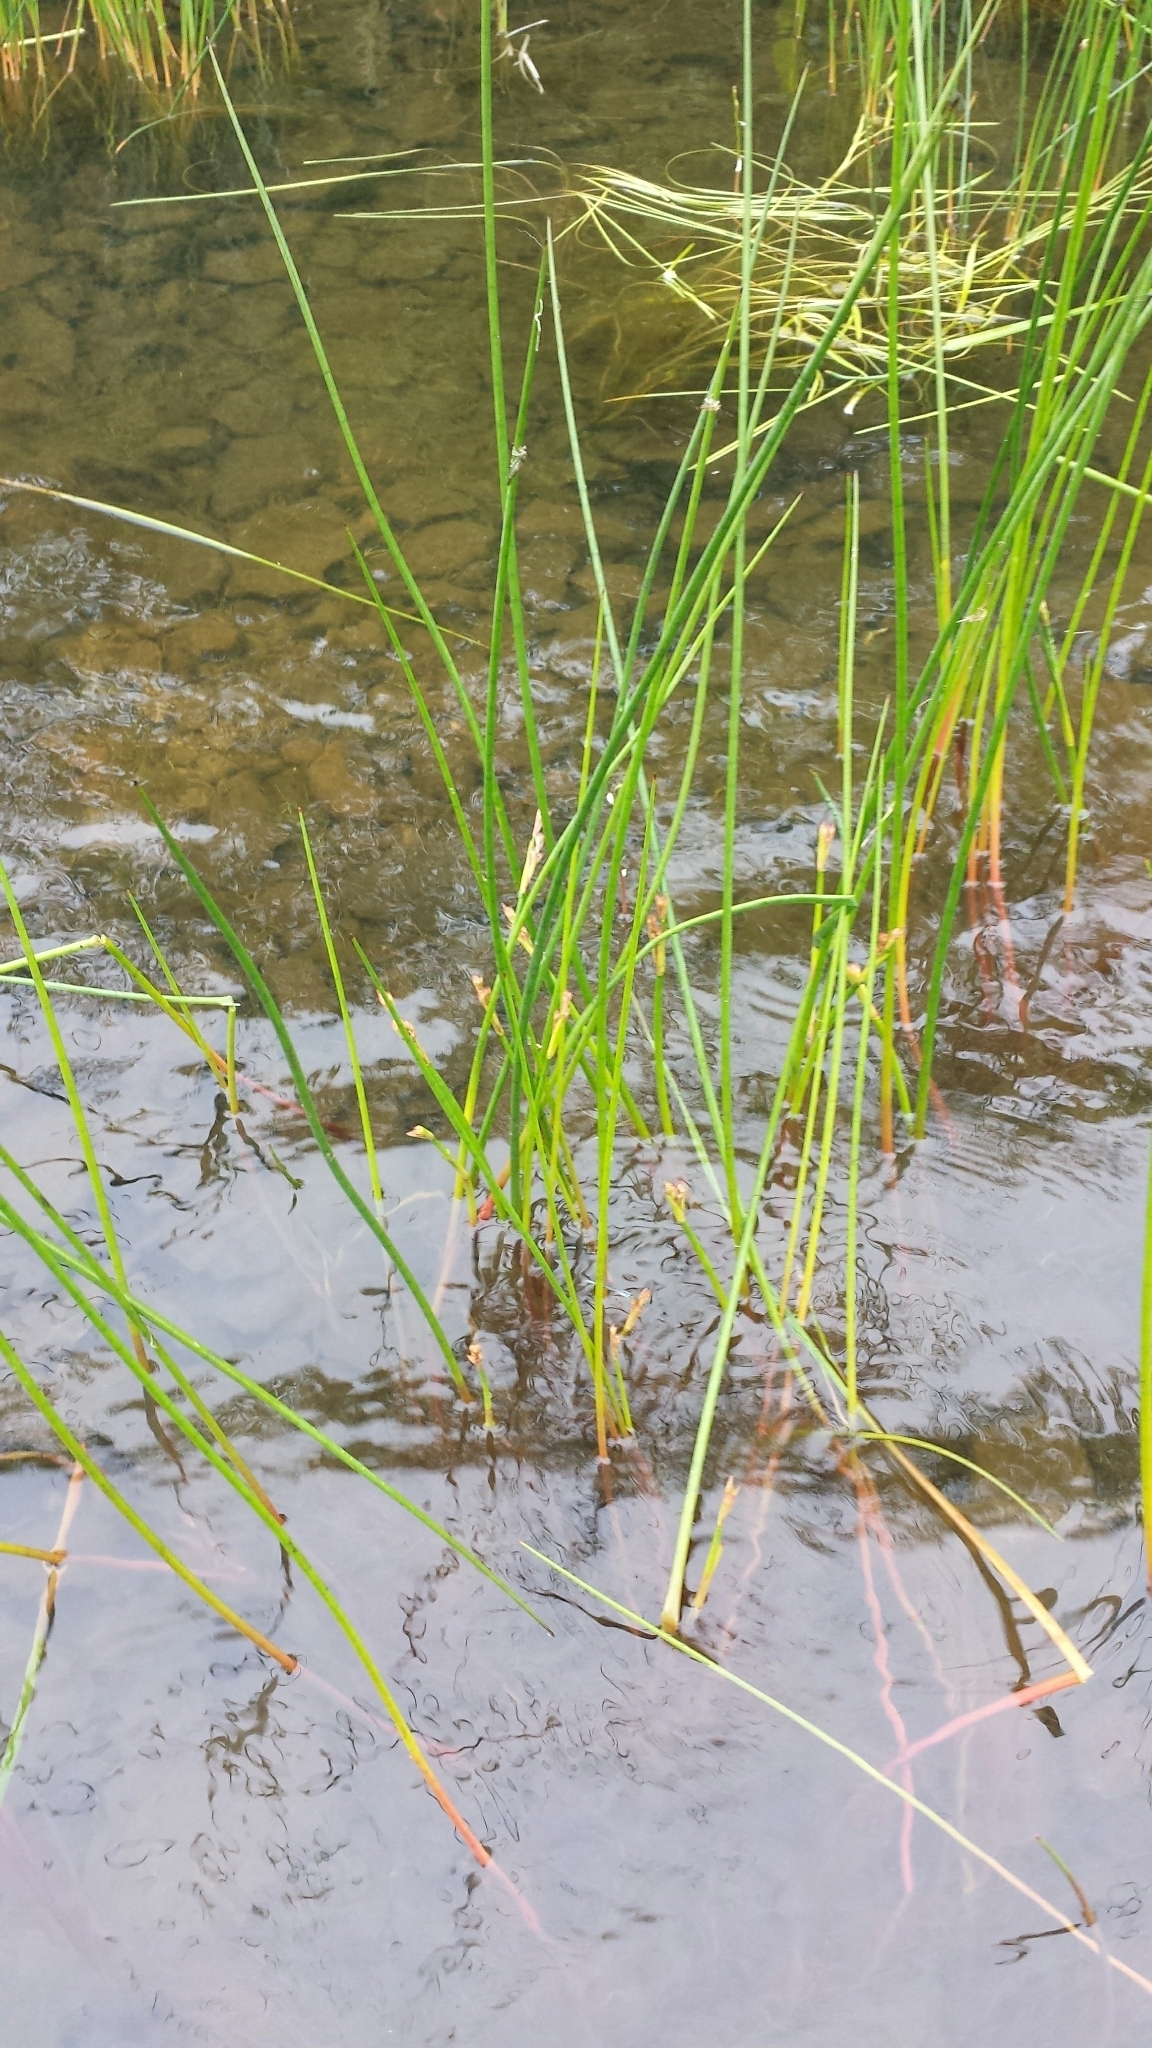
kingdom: Plantae
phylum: Tracheophyta
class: Liliopsida
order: Poales
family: Juncaceae
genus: Juncus
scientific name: Juncus militaris
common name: Bayonet rush
